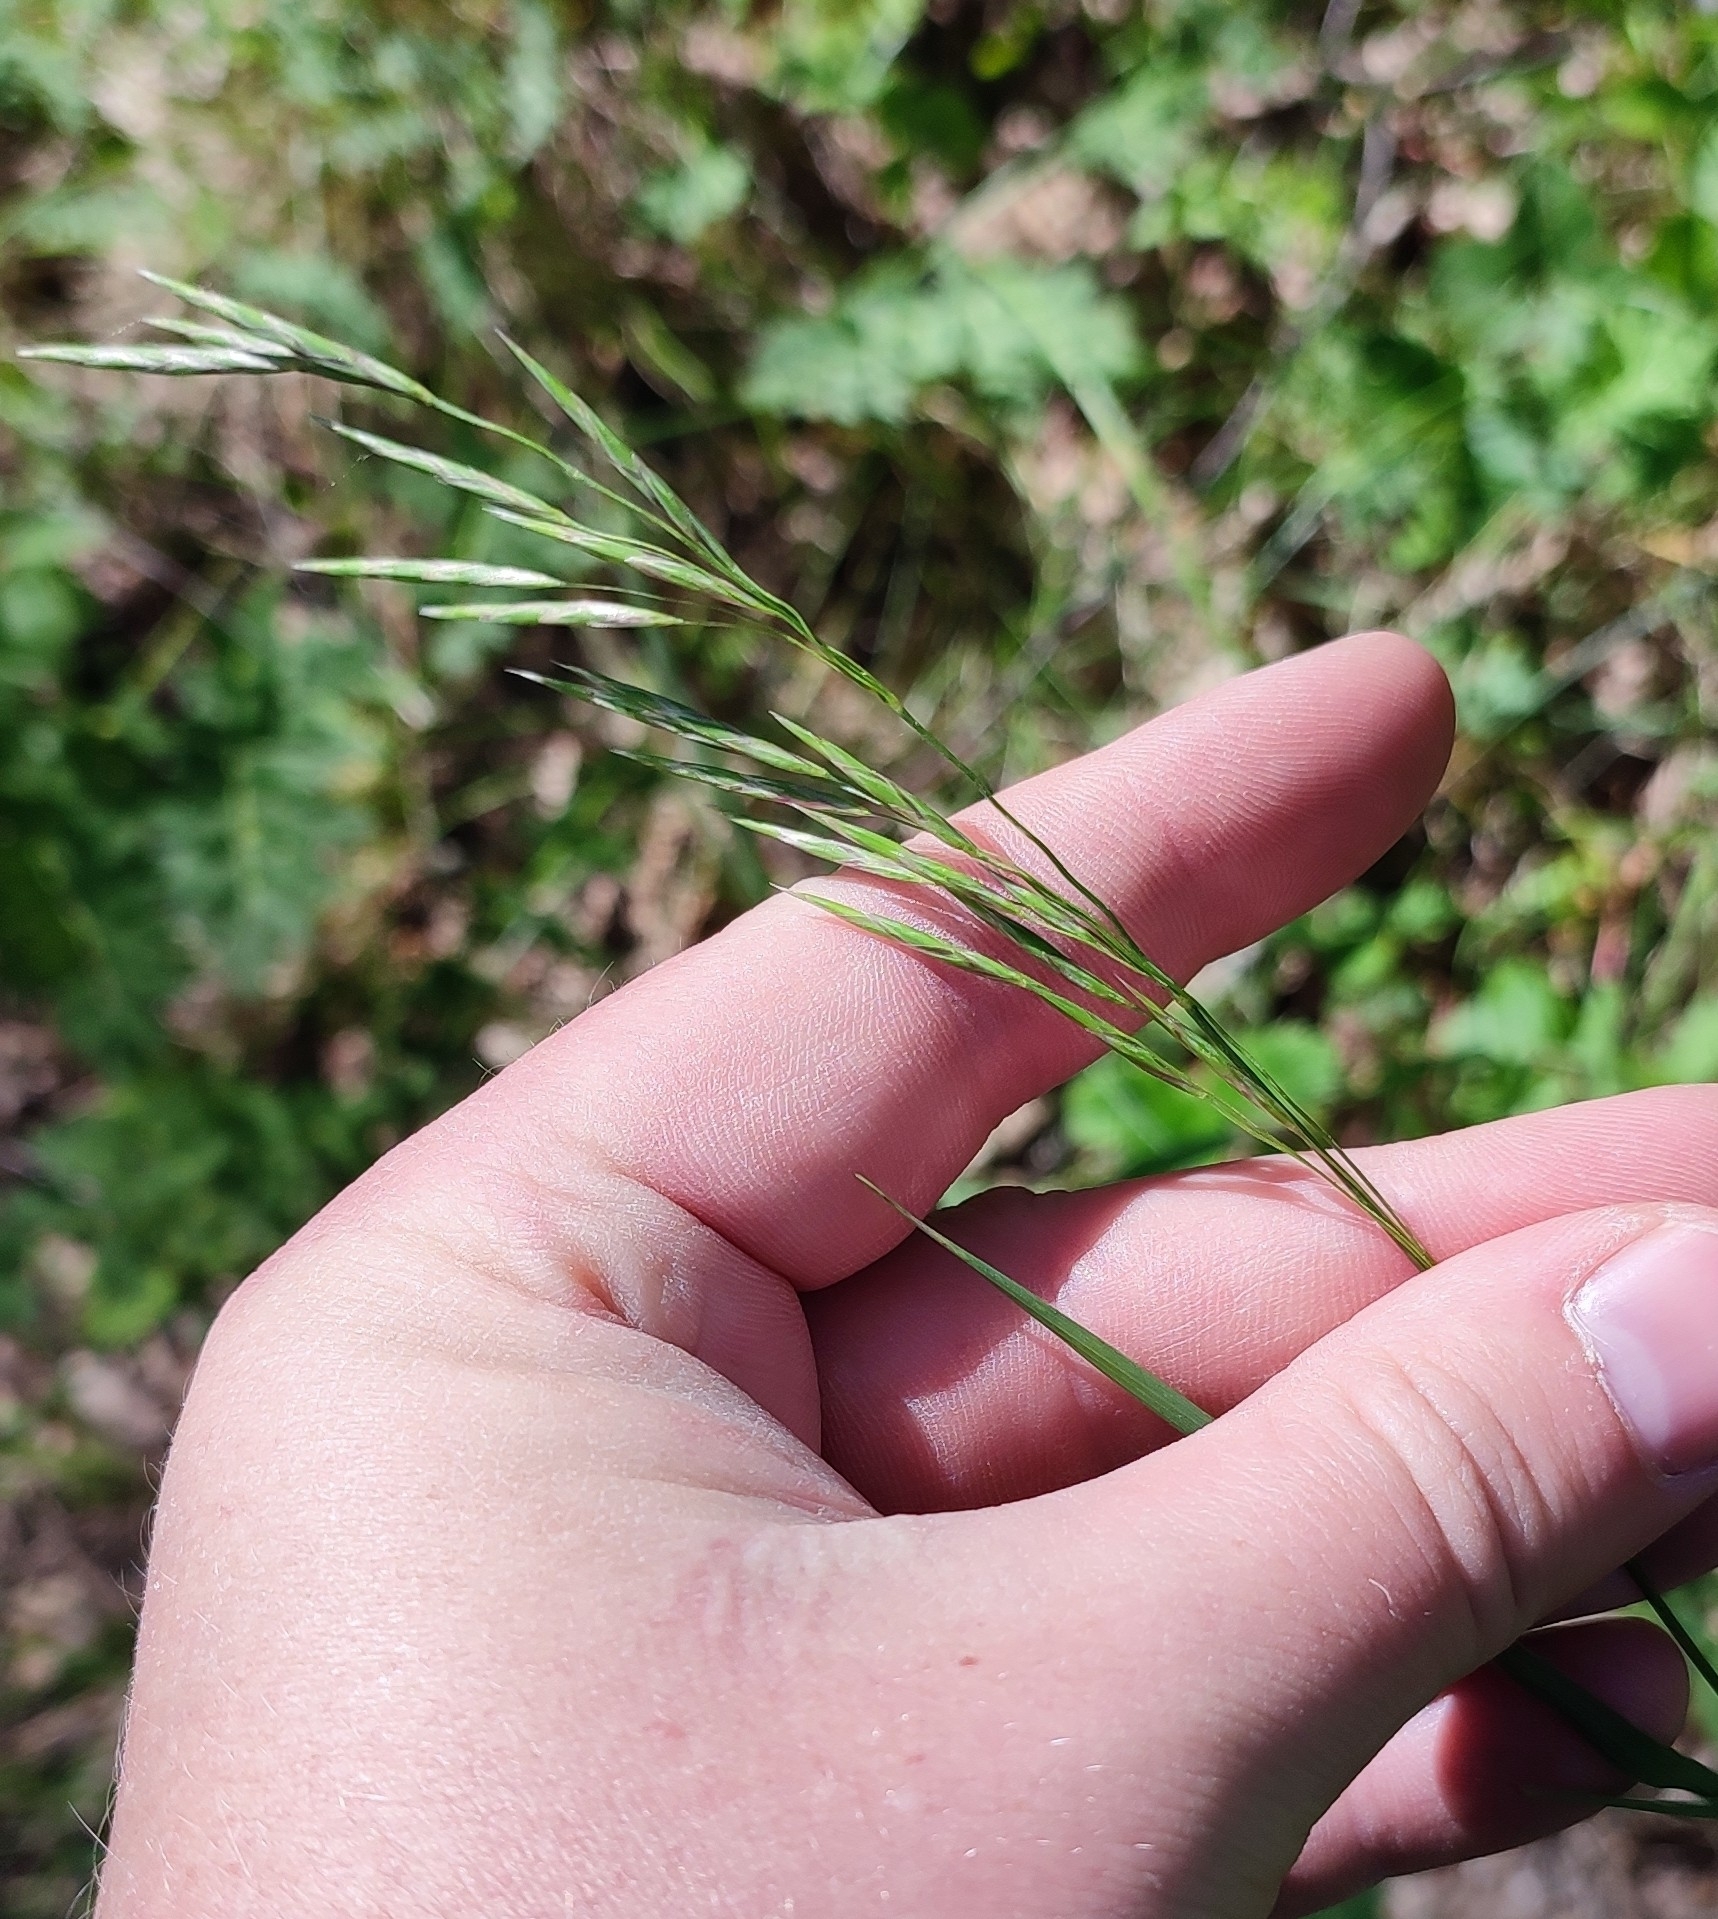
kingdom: Plantae
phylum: Tracheophyta
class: Liliopsida
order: Poales
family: Poaceae
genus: Bromus
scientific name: Bromus inermis
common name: Smooth brome
